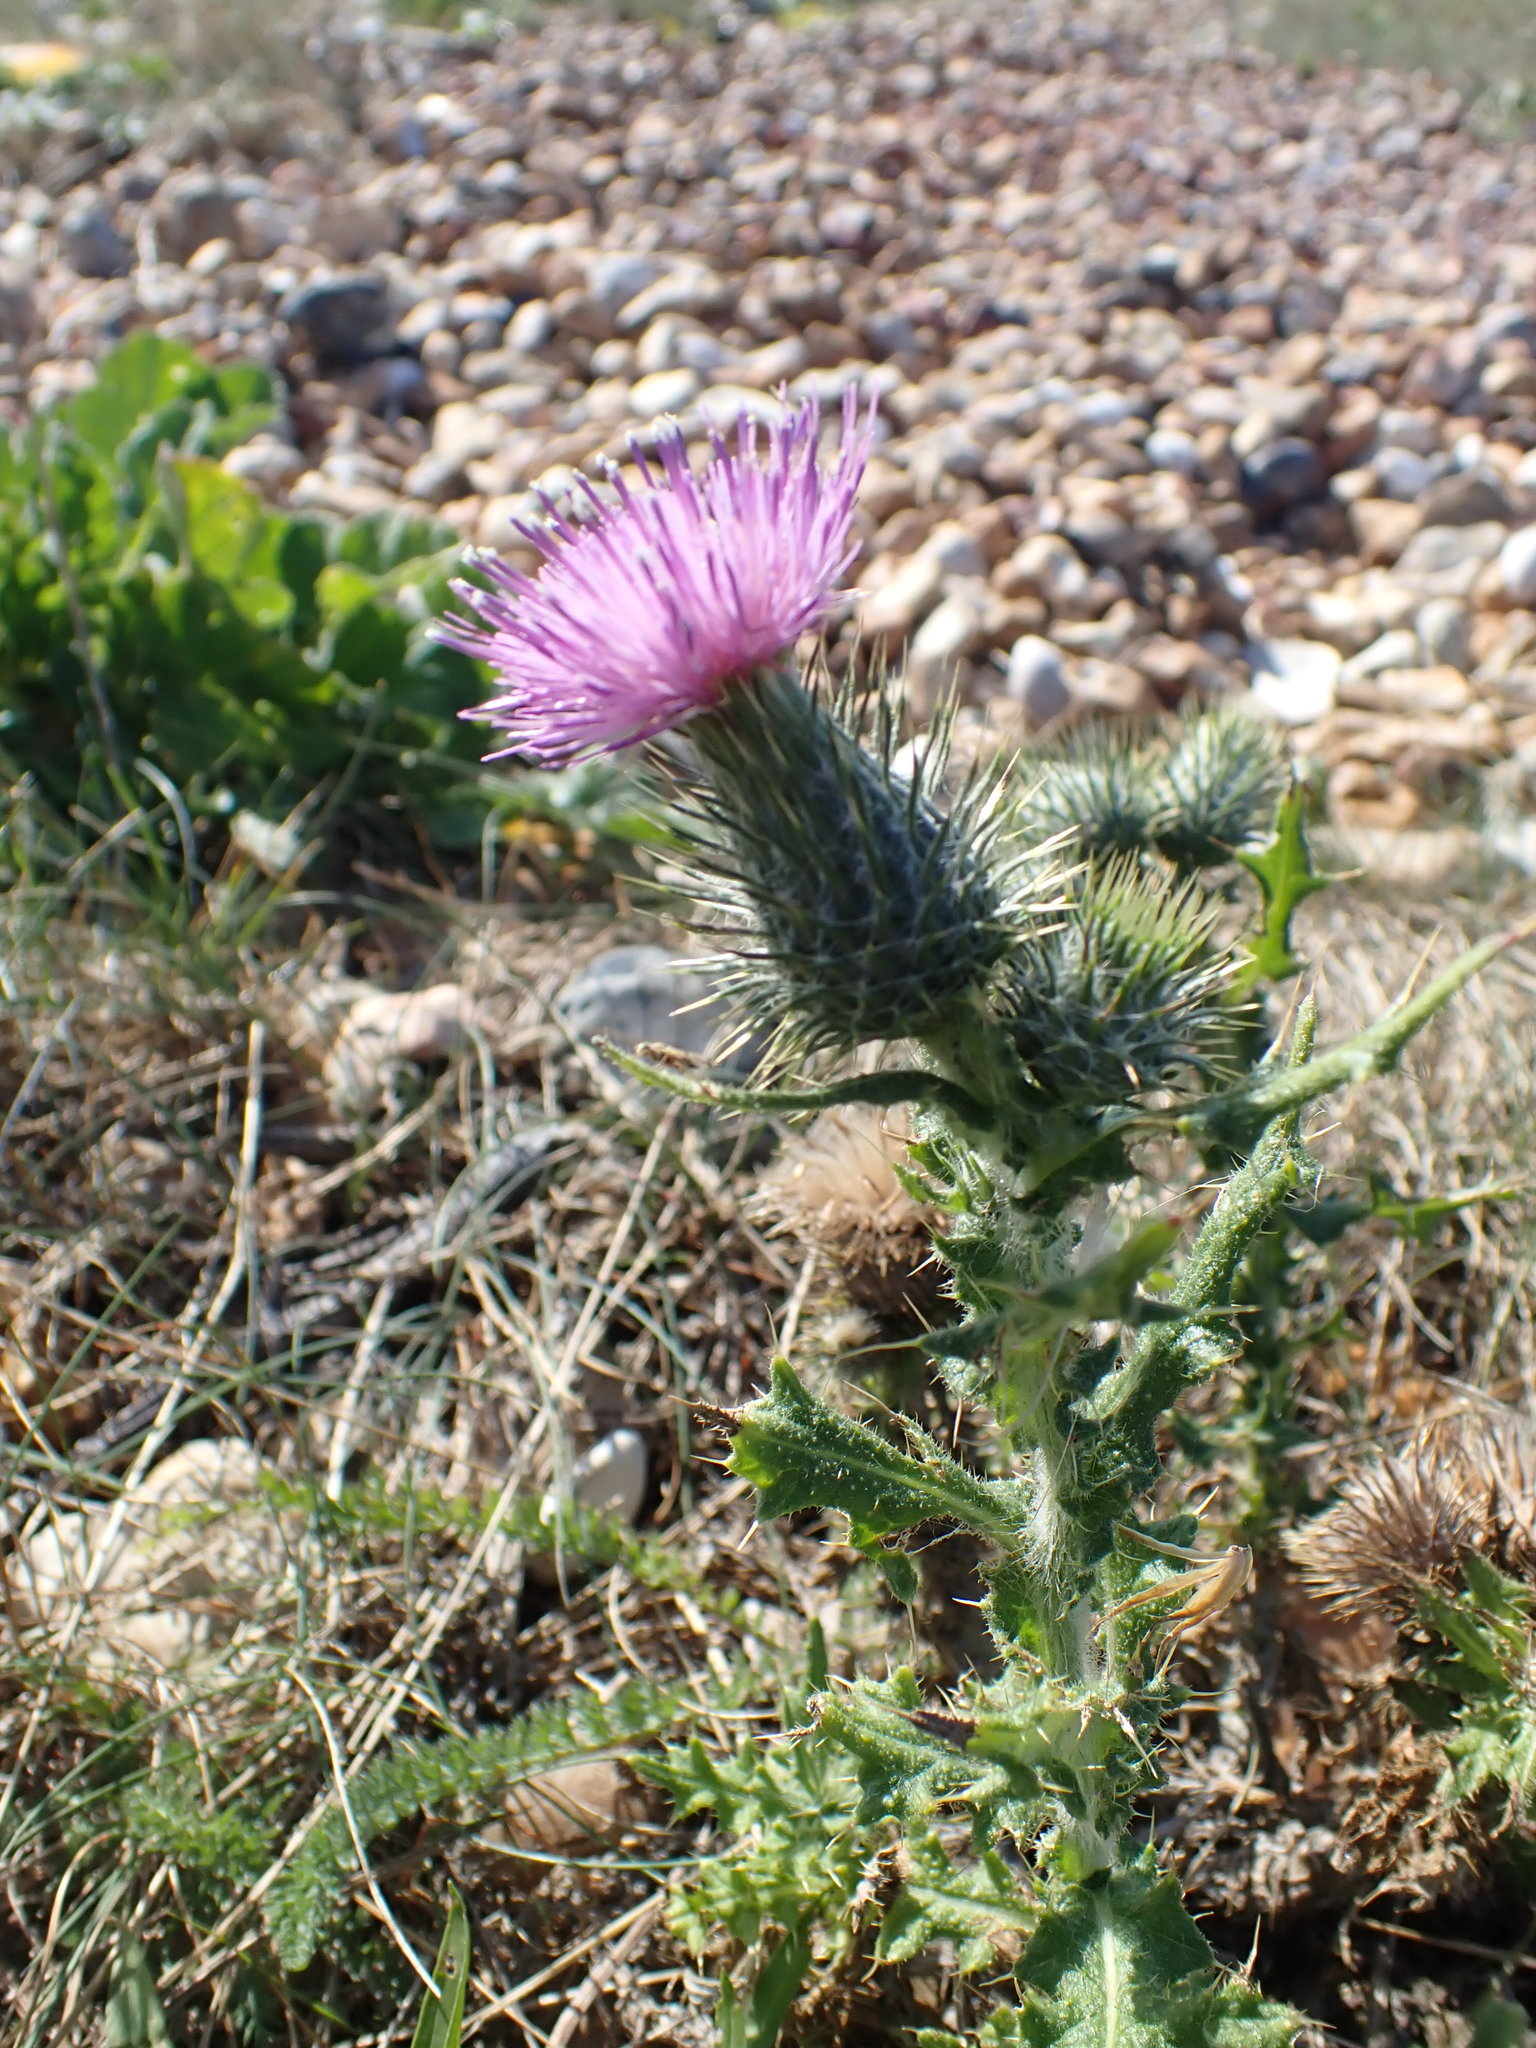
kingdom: Plantae
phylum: Tracheophyta
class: Magnoliopsida
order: Asterales
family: Asteraceae
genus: Cirsium
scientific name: Cirsium vulgare
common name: Bull thistle
